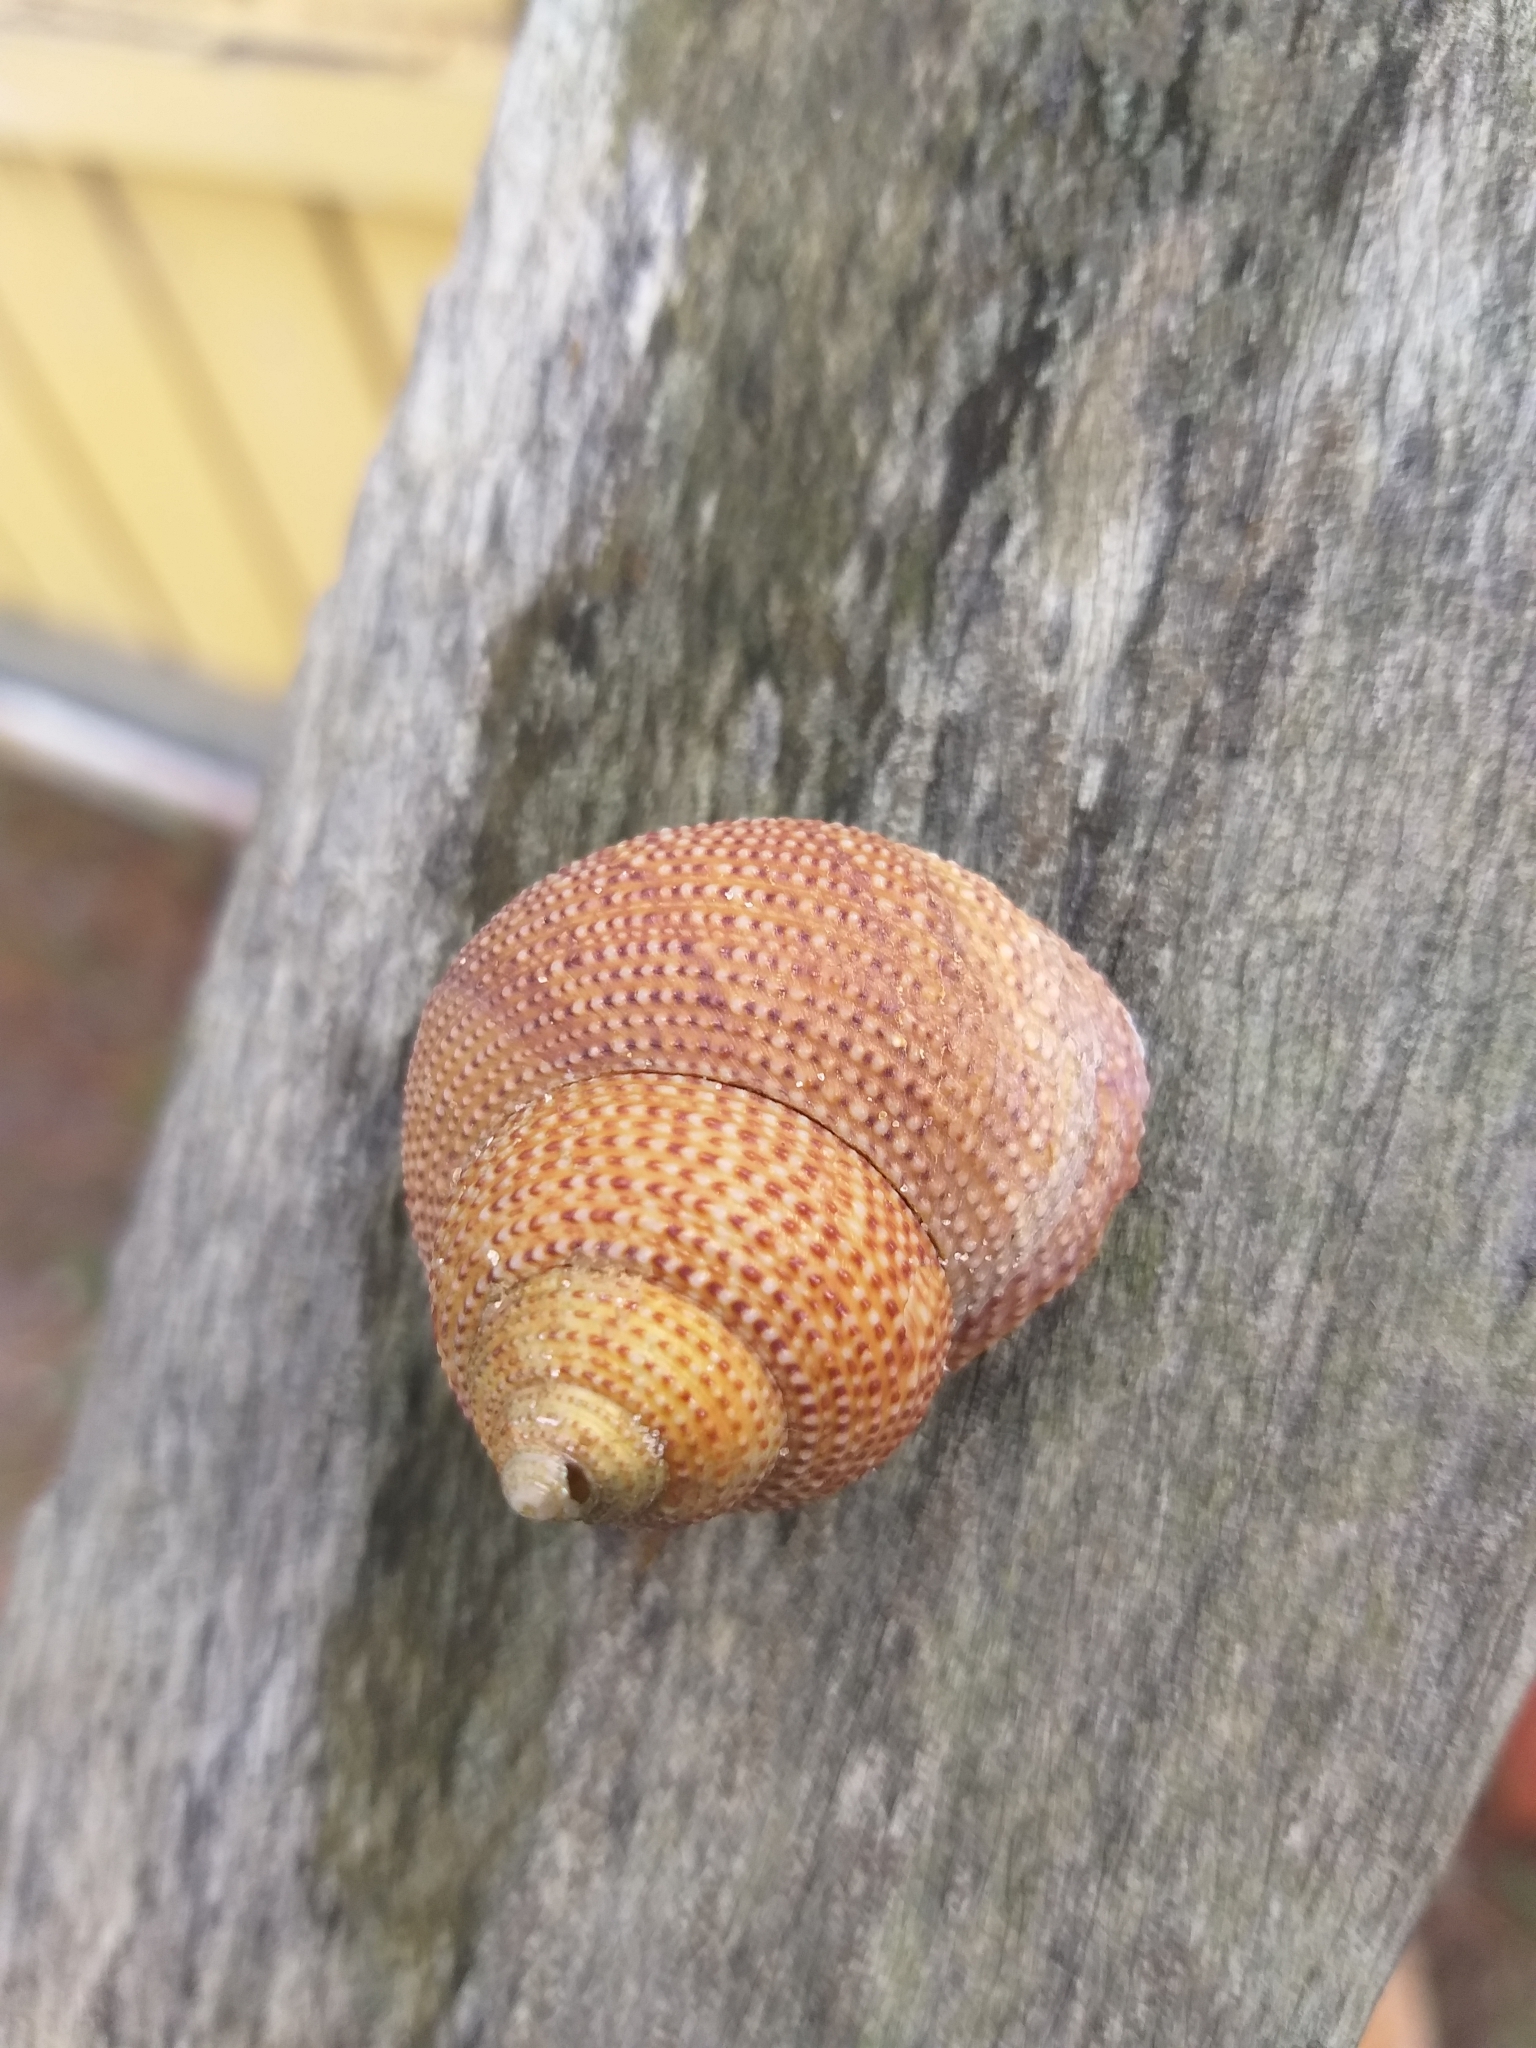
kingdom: Animalia
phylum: Mollusca
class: Gastropoda
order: Trochida
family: Calliostomatidae
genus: Maurea
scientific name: Maurea punctulata
